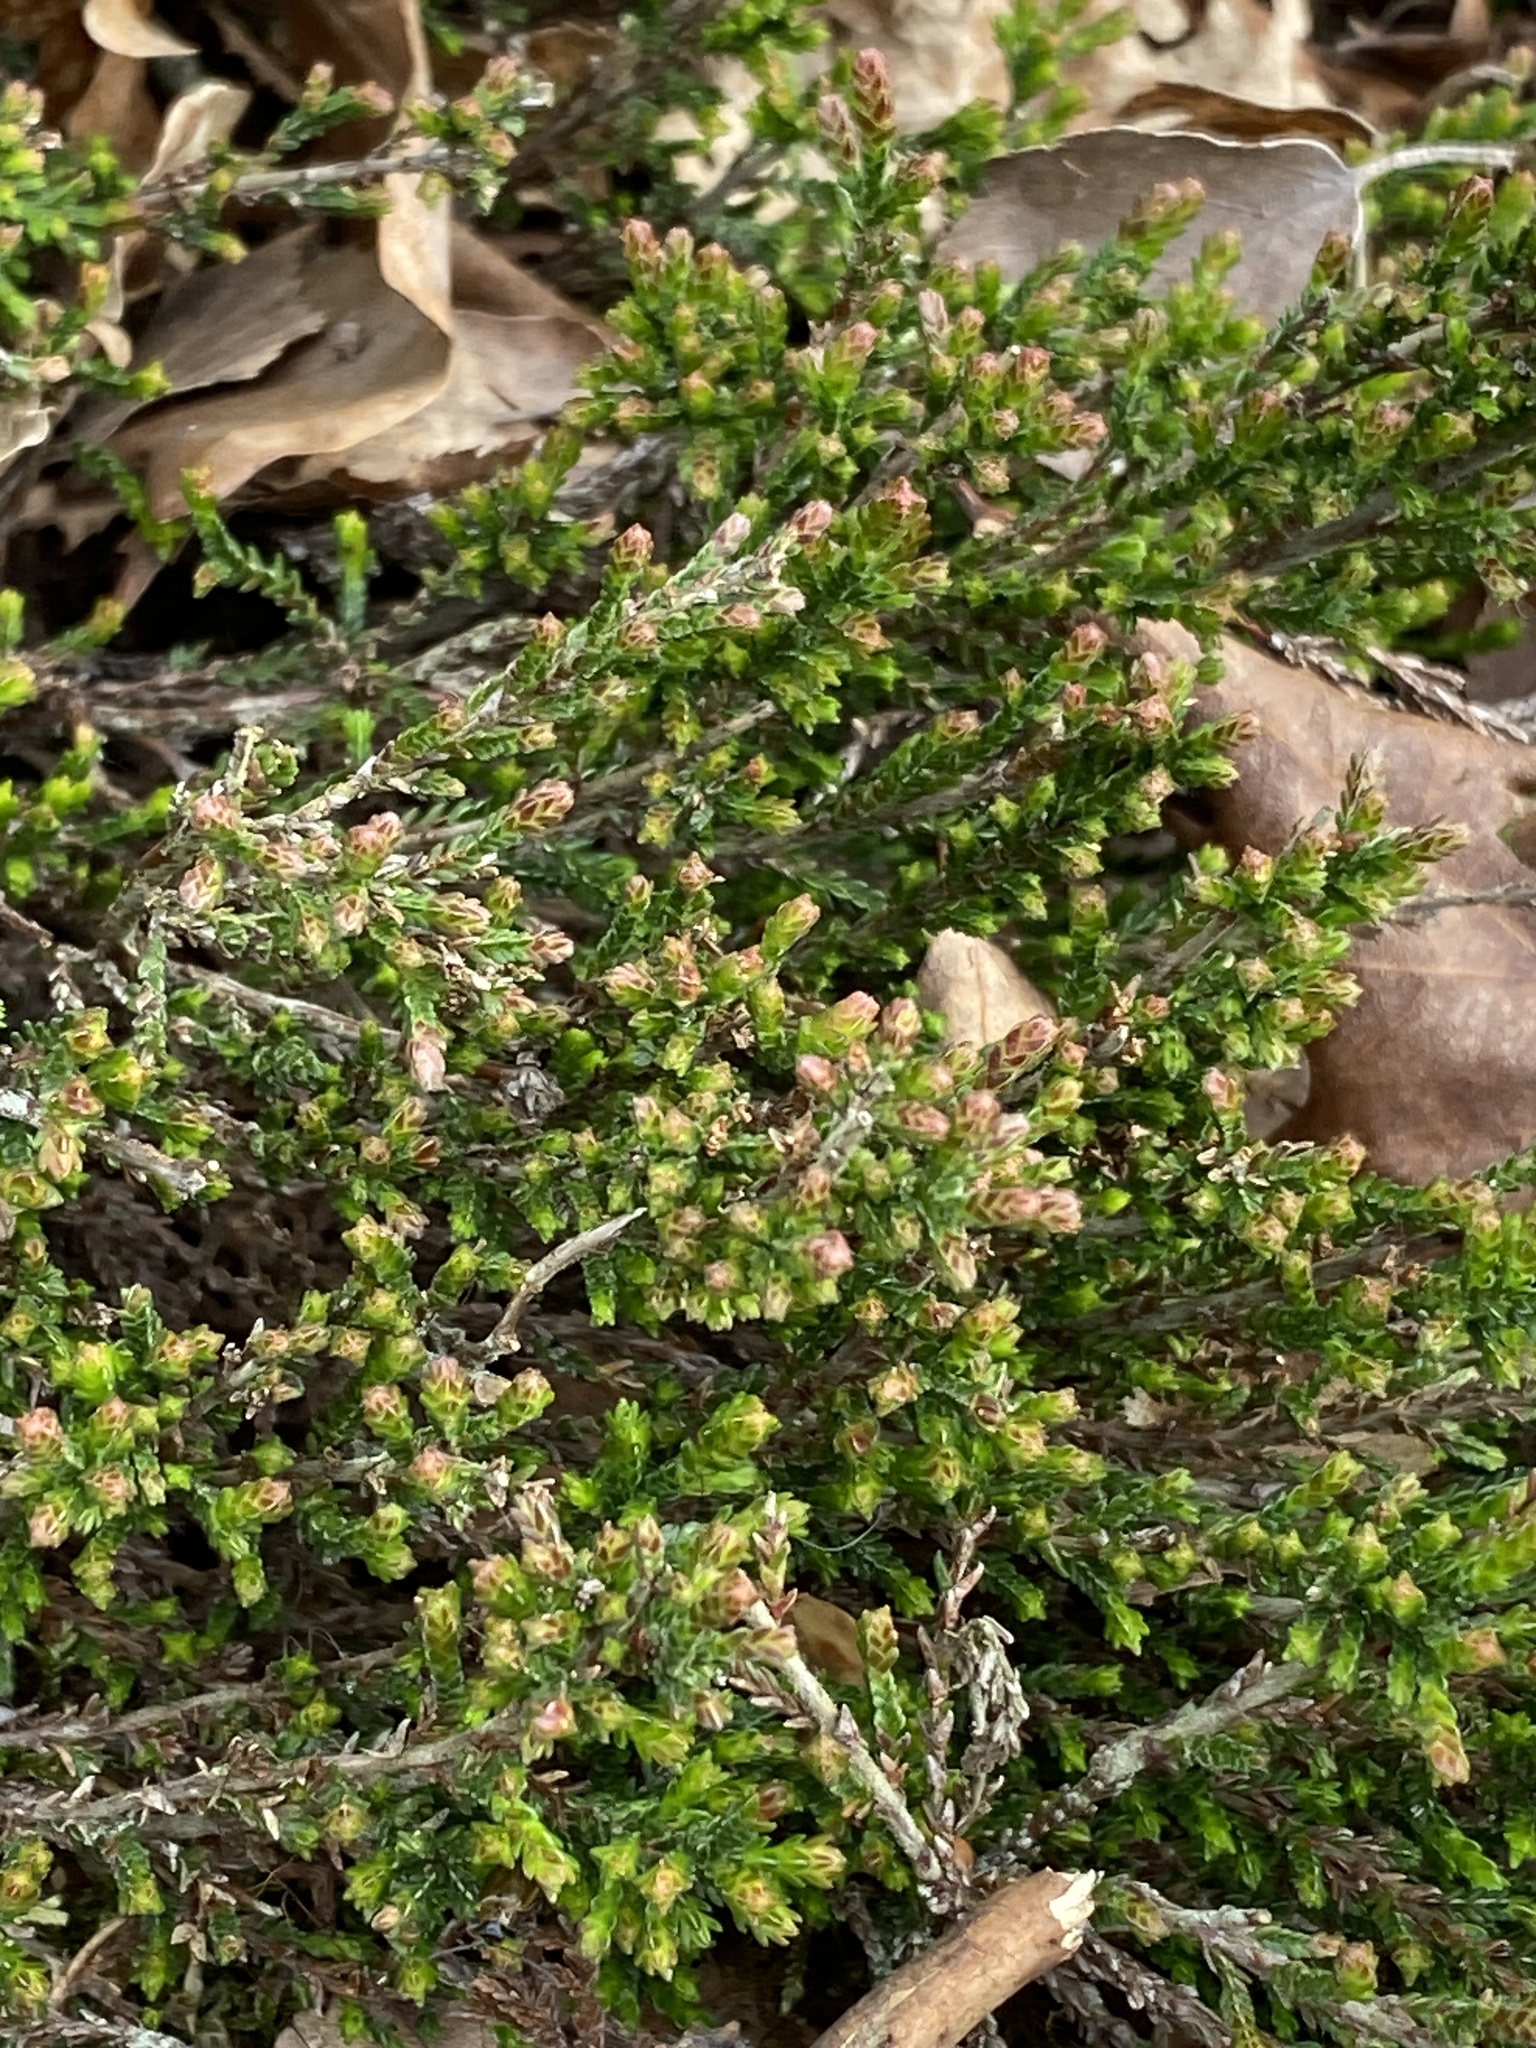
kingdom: Plantae
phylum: Tracheophyta
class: Magnoliopsida
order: Ericales
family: Ericaceae
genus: Calluna
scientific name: Calluna vulgaris
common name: Heather
